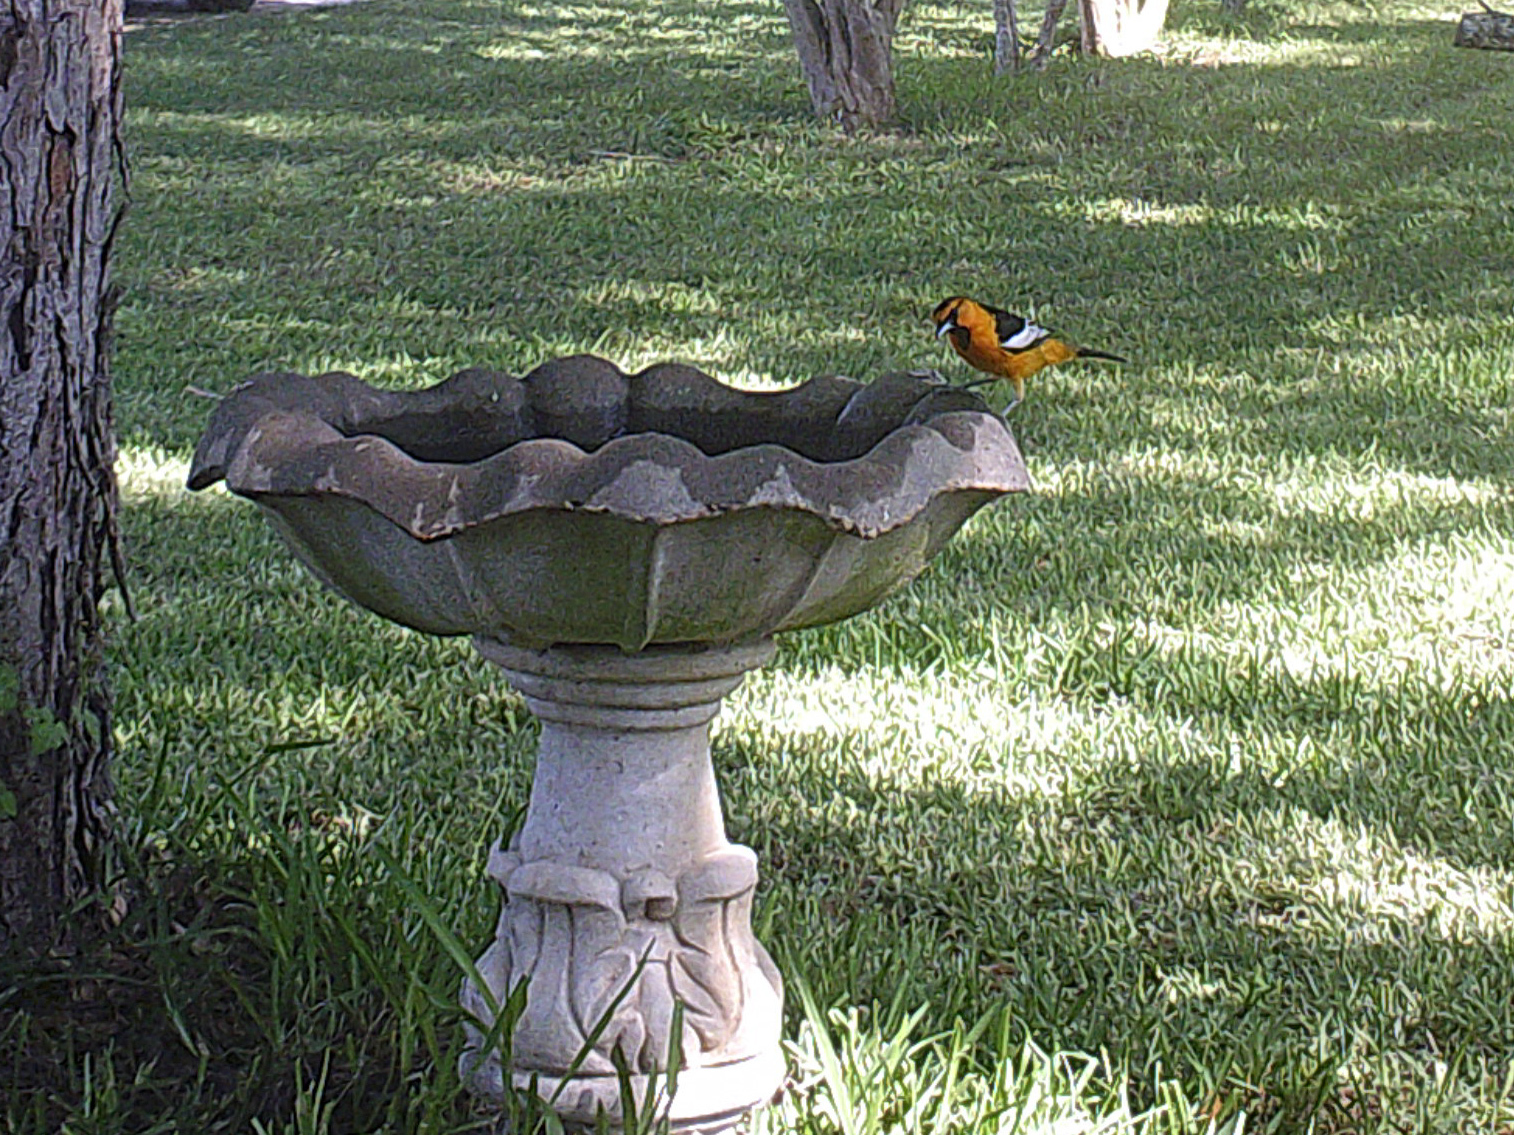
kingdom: Animalia
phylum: Chordata
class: Aves
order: Passeriformes
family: Icteridae
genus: Icterus
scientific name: Icterus bullockii
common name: Bullock's oriole
